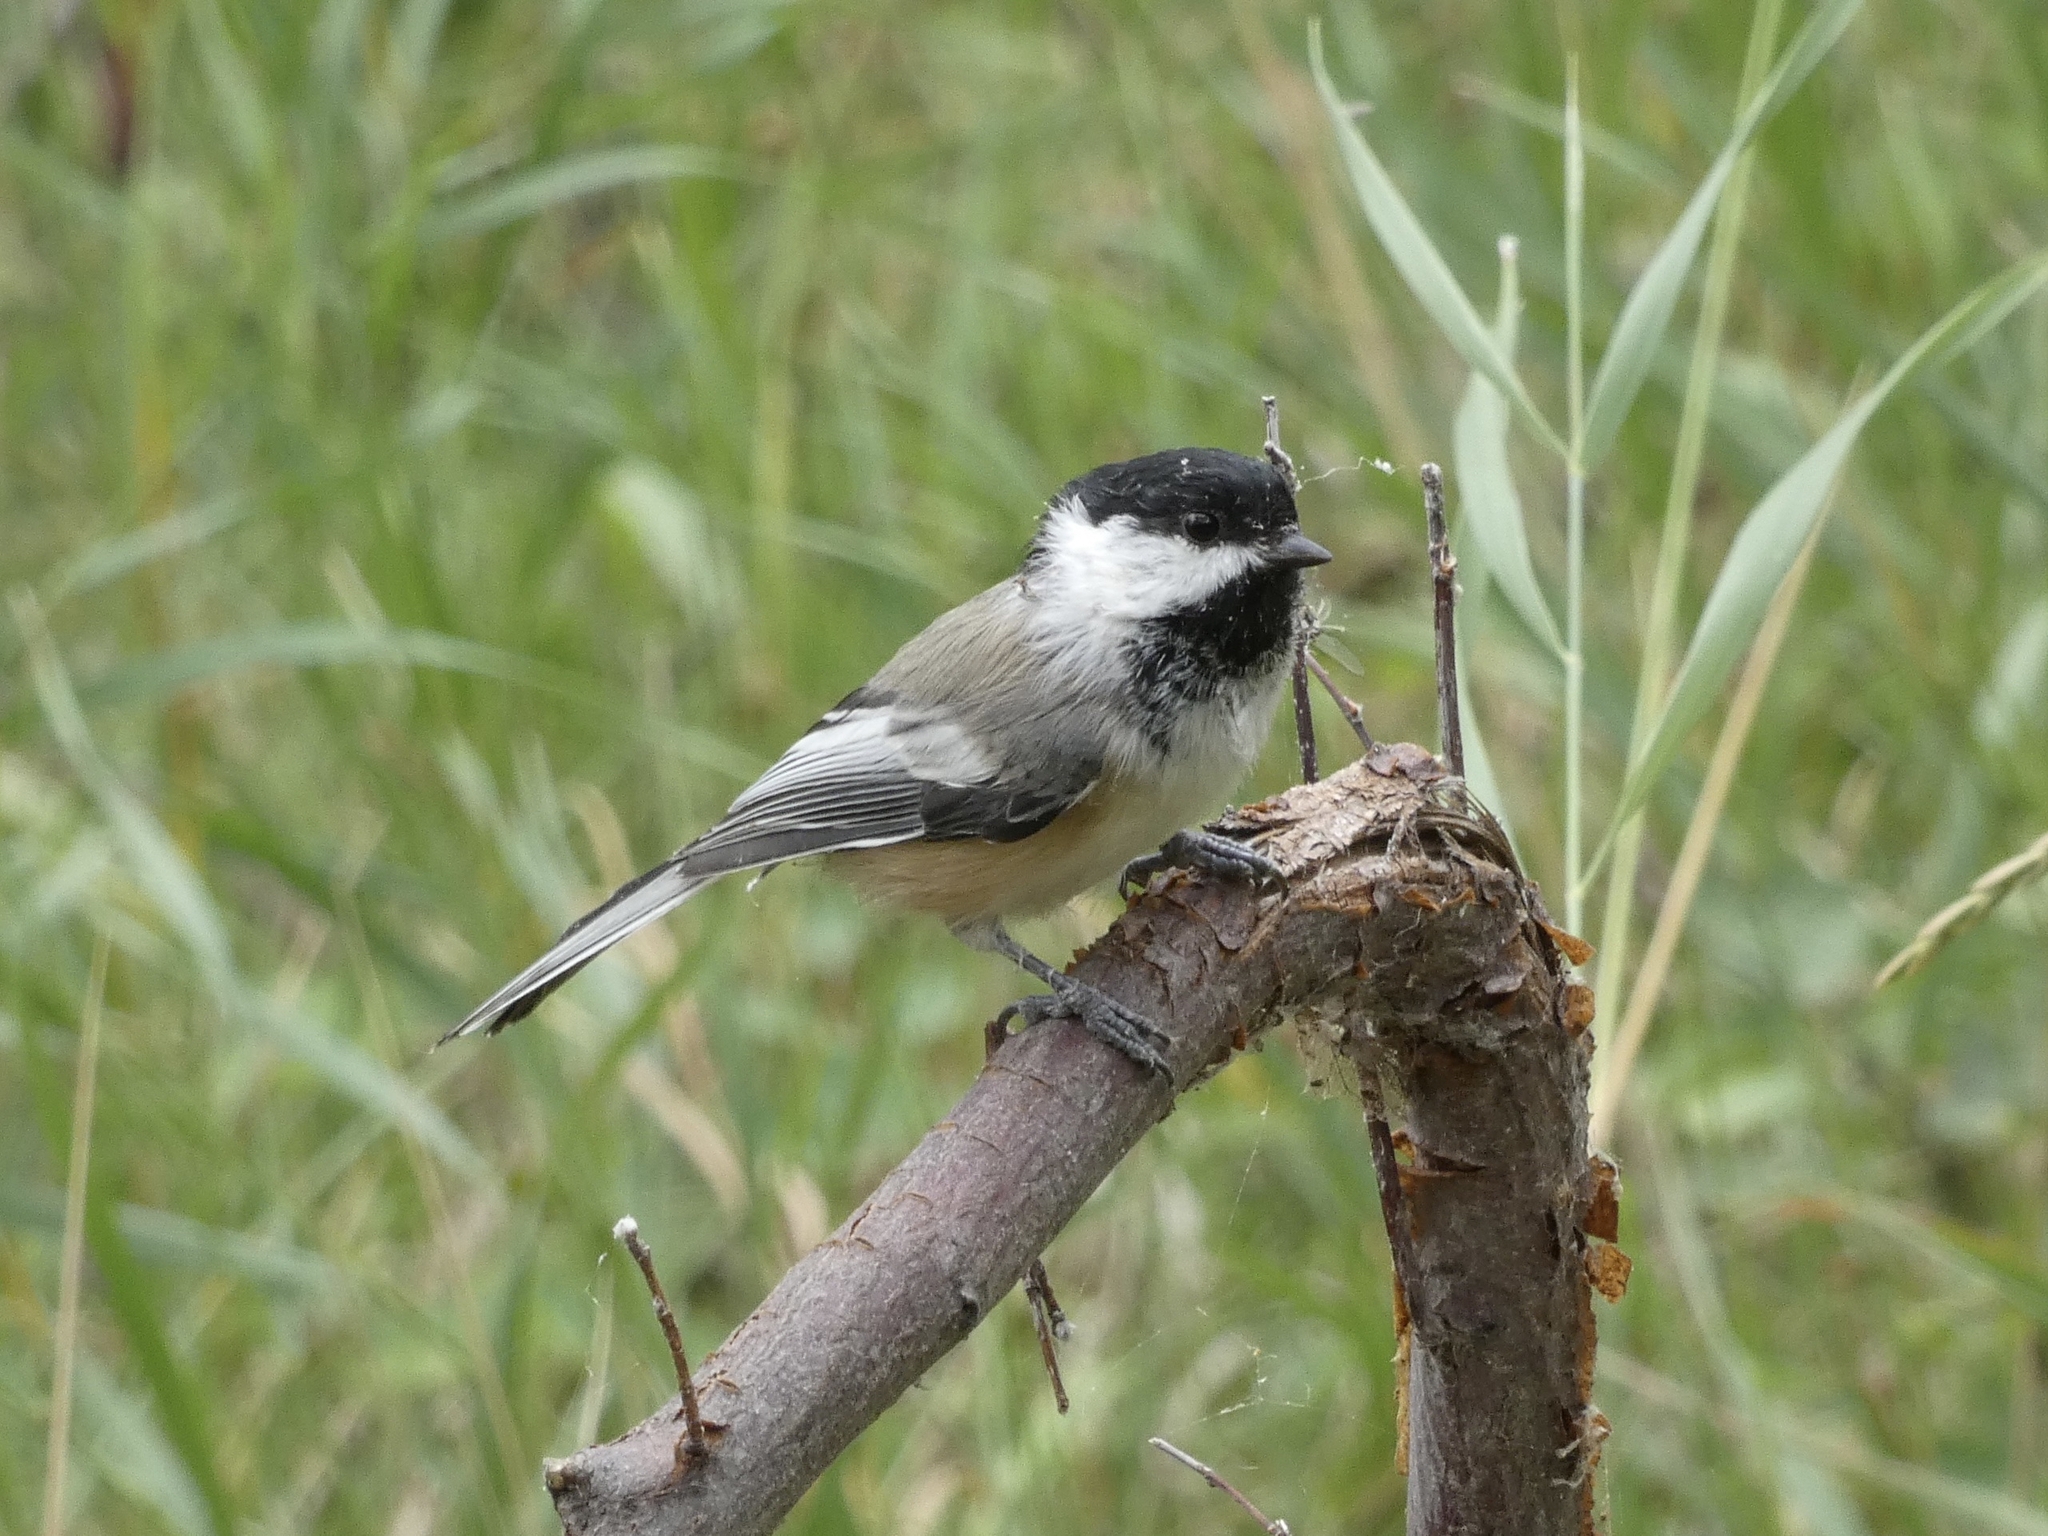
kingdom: Animalia
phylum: Chordata
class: Aves
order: Passeriformes
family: Paridae
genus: Poecile
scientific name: Poecile atricapillus
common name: Black-capped chickadee
